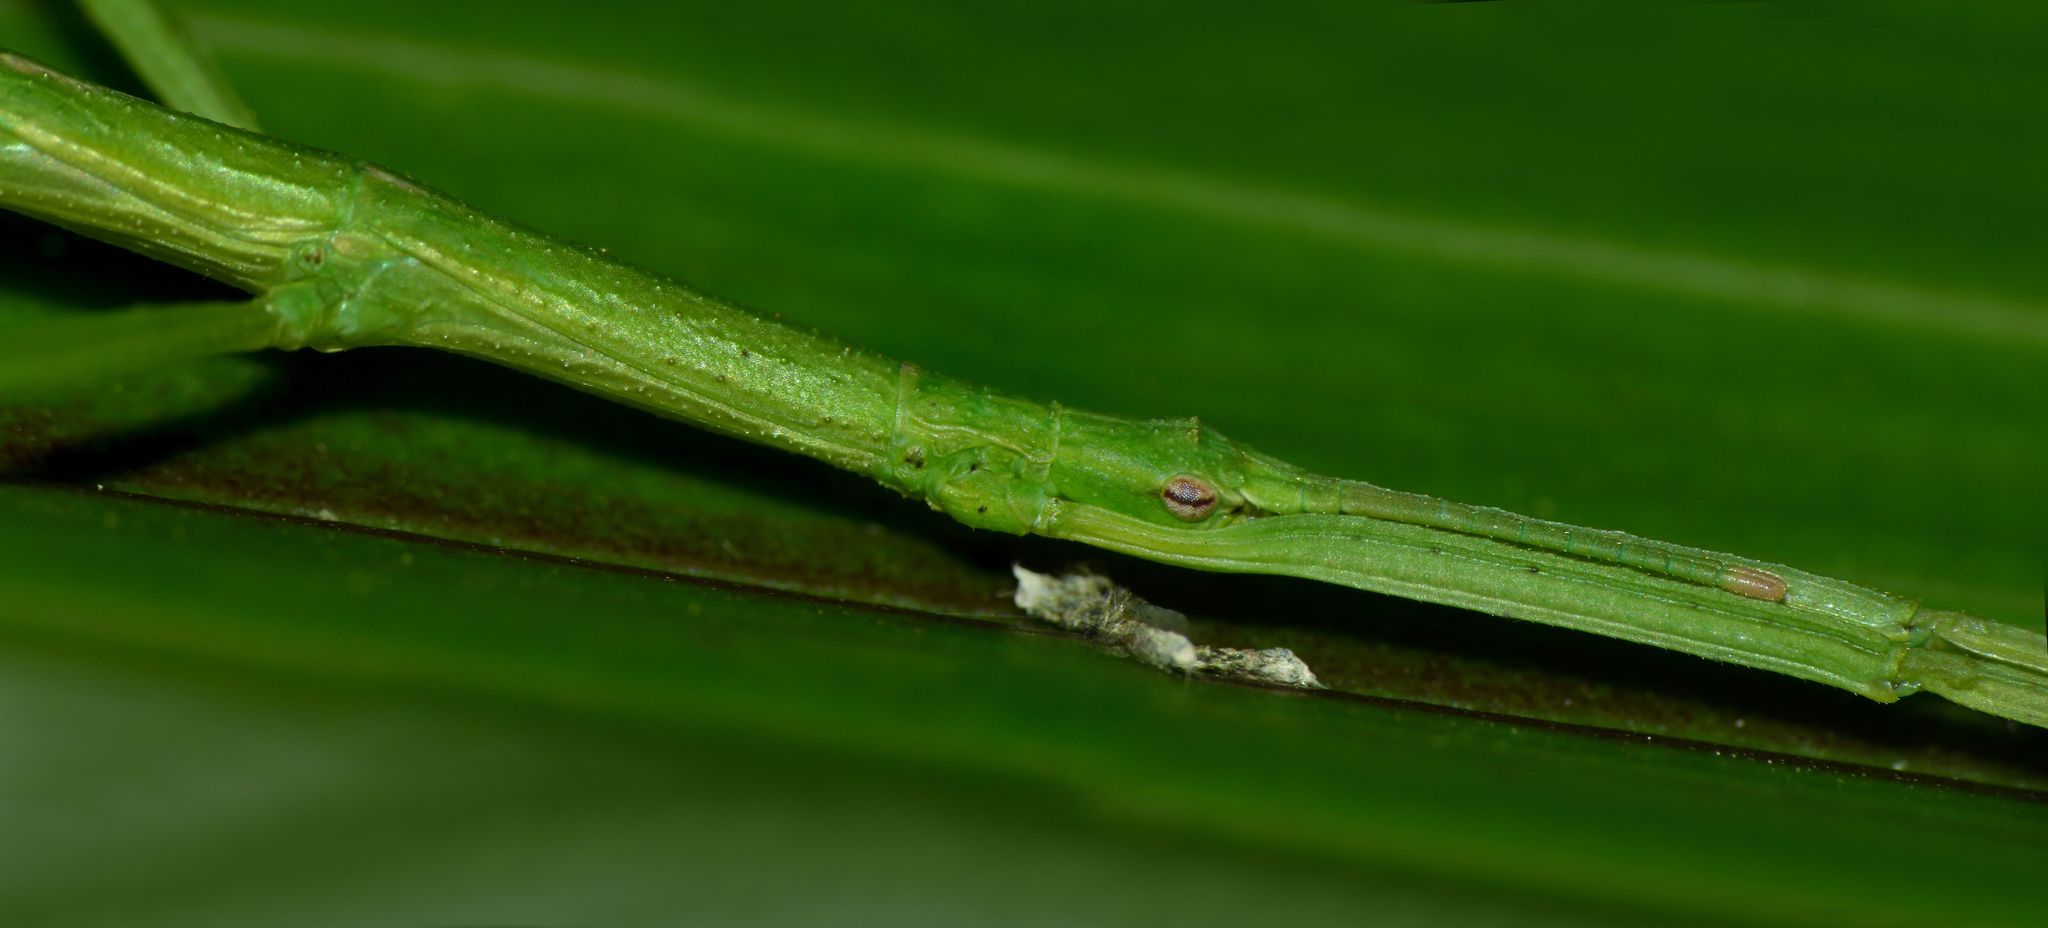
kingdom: Animalia
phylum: Arthropoda
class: Insecta
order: Phasmida
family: Phasmatidae
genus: Niveaphasma
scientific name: Niveaphasma annulatum
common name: Hutton's stick insect
